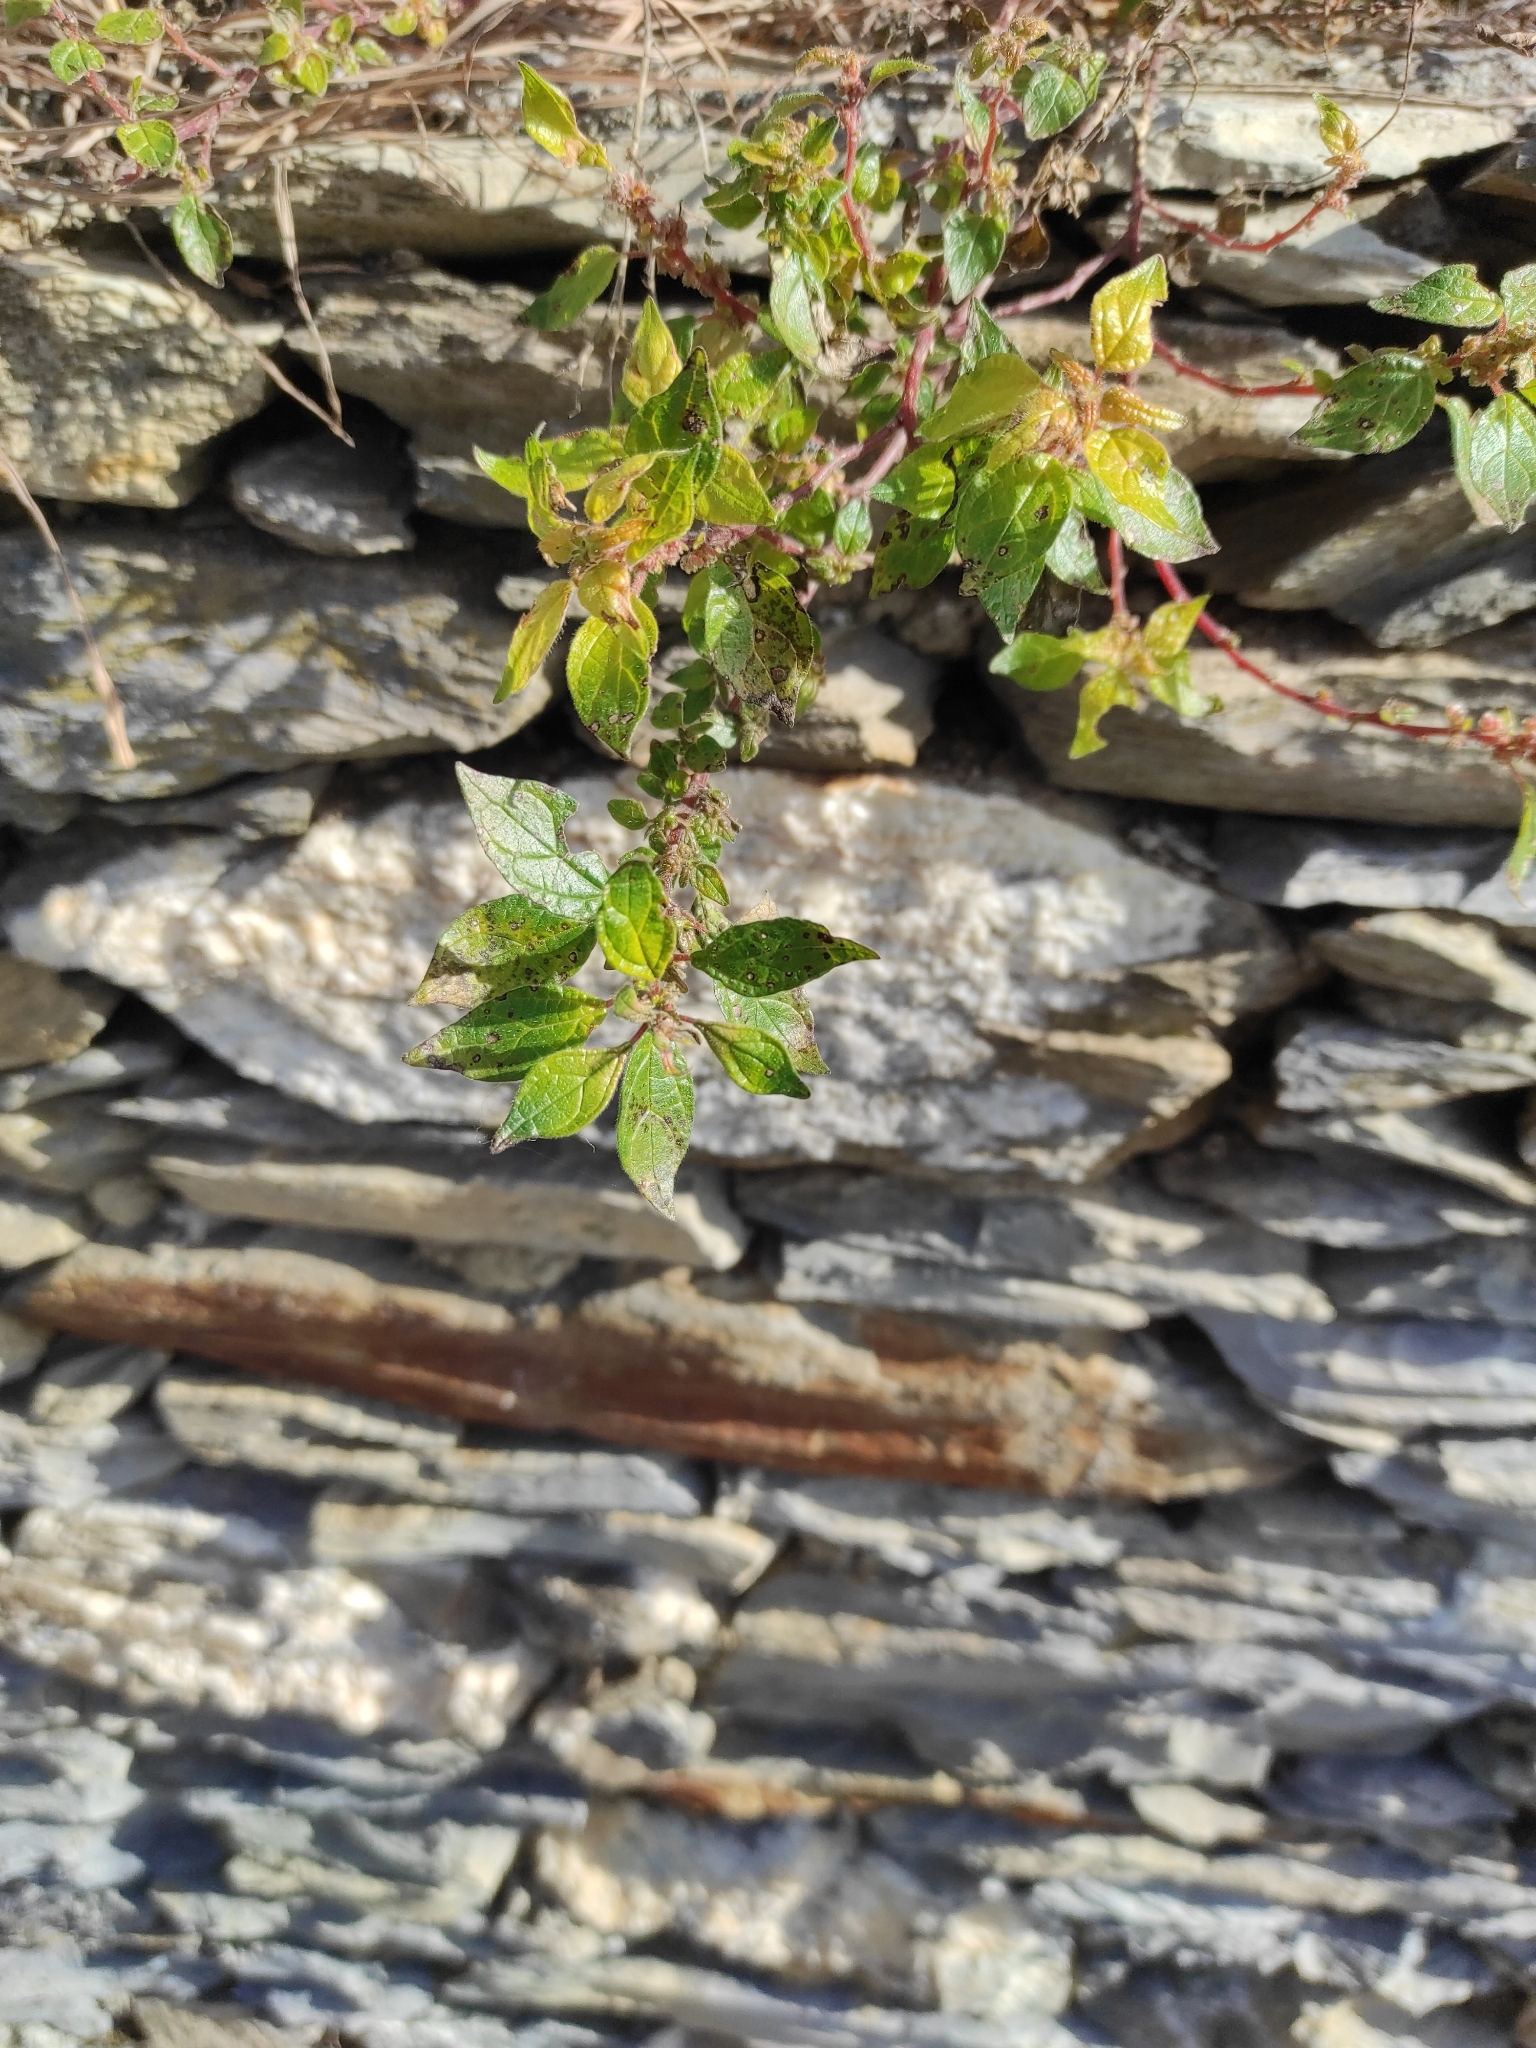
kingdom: Plantae
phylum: Tracheophyta
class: Magnoliopsida
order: Rosales
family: Urticaceae
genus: Parietaria
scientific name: Parietaria judaica
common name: Pellitory-of-the-wall
